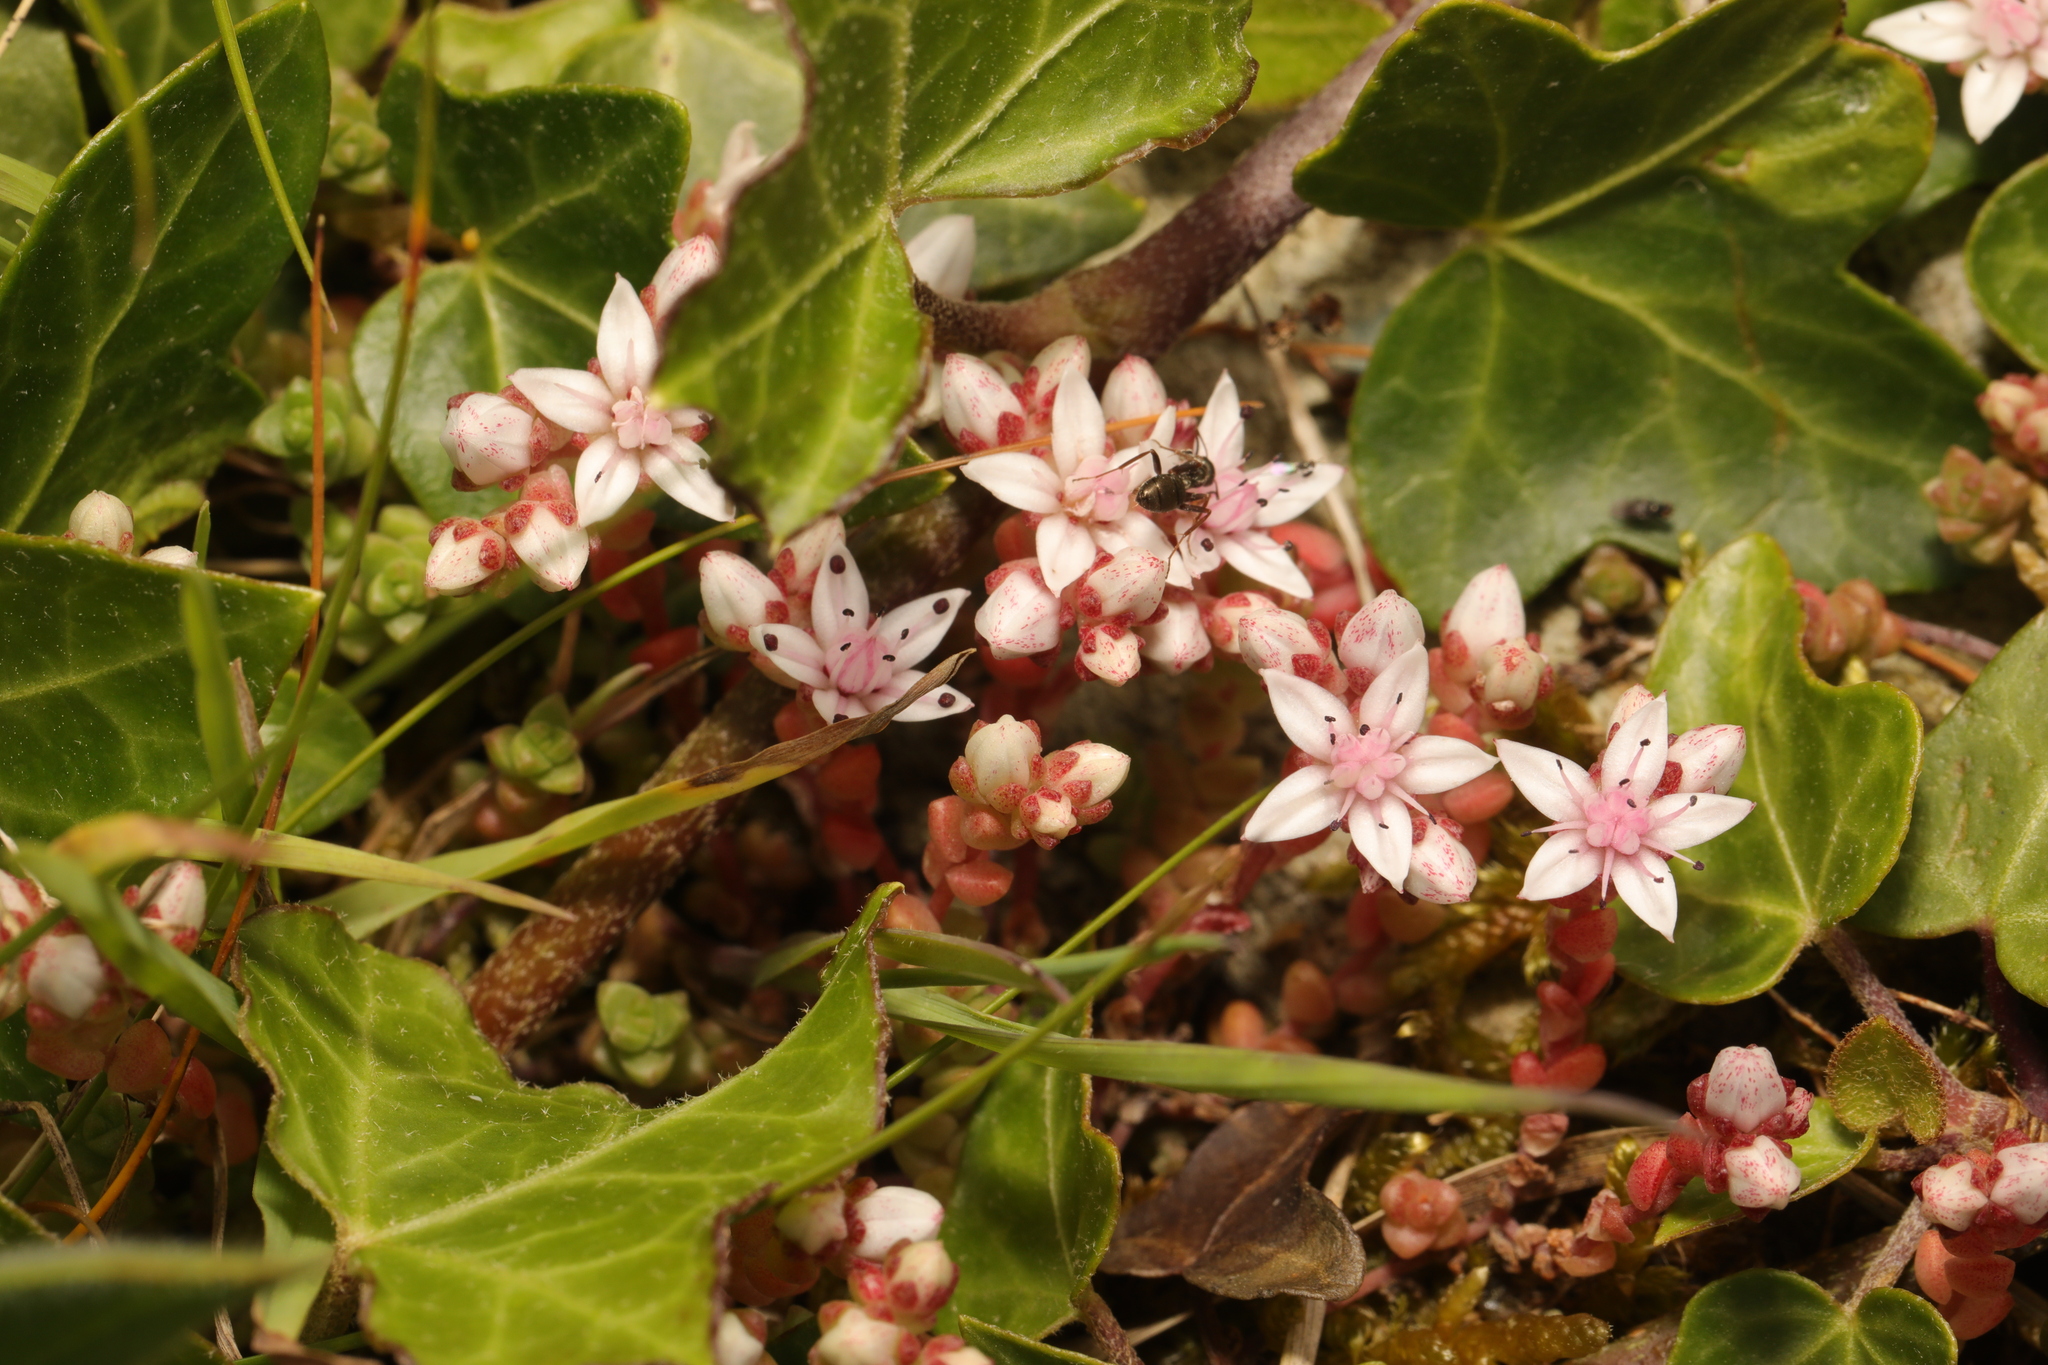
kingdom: Plantae
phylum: Tracheophyta
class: Magnoliopsida
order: Saxifragales
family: Crassulaceae
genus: Sedum
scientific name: Sedum anglicum
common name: English stonecrop
